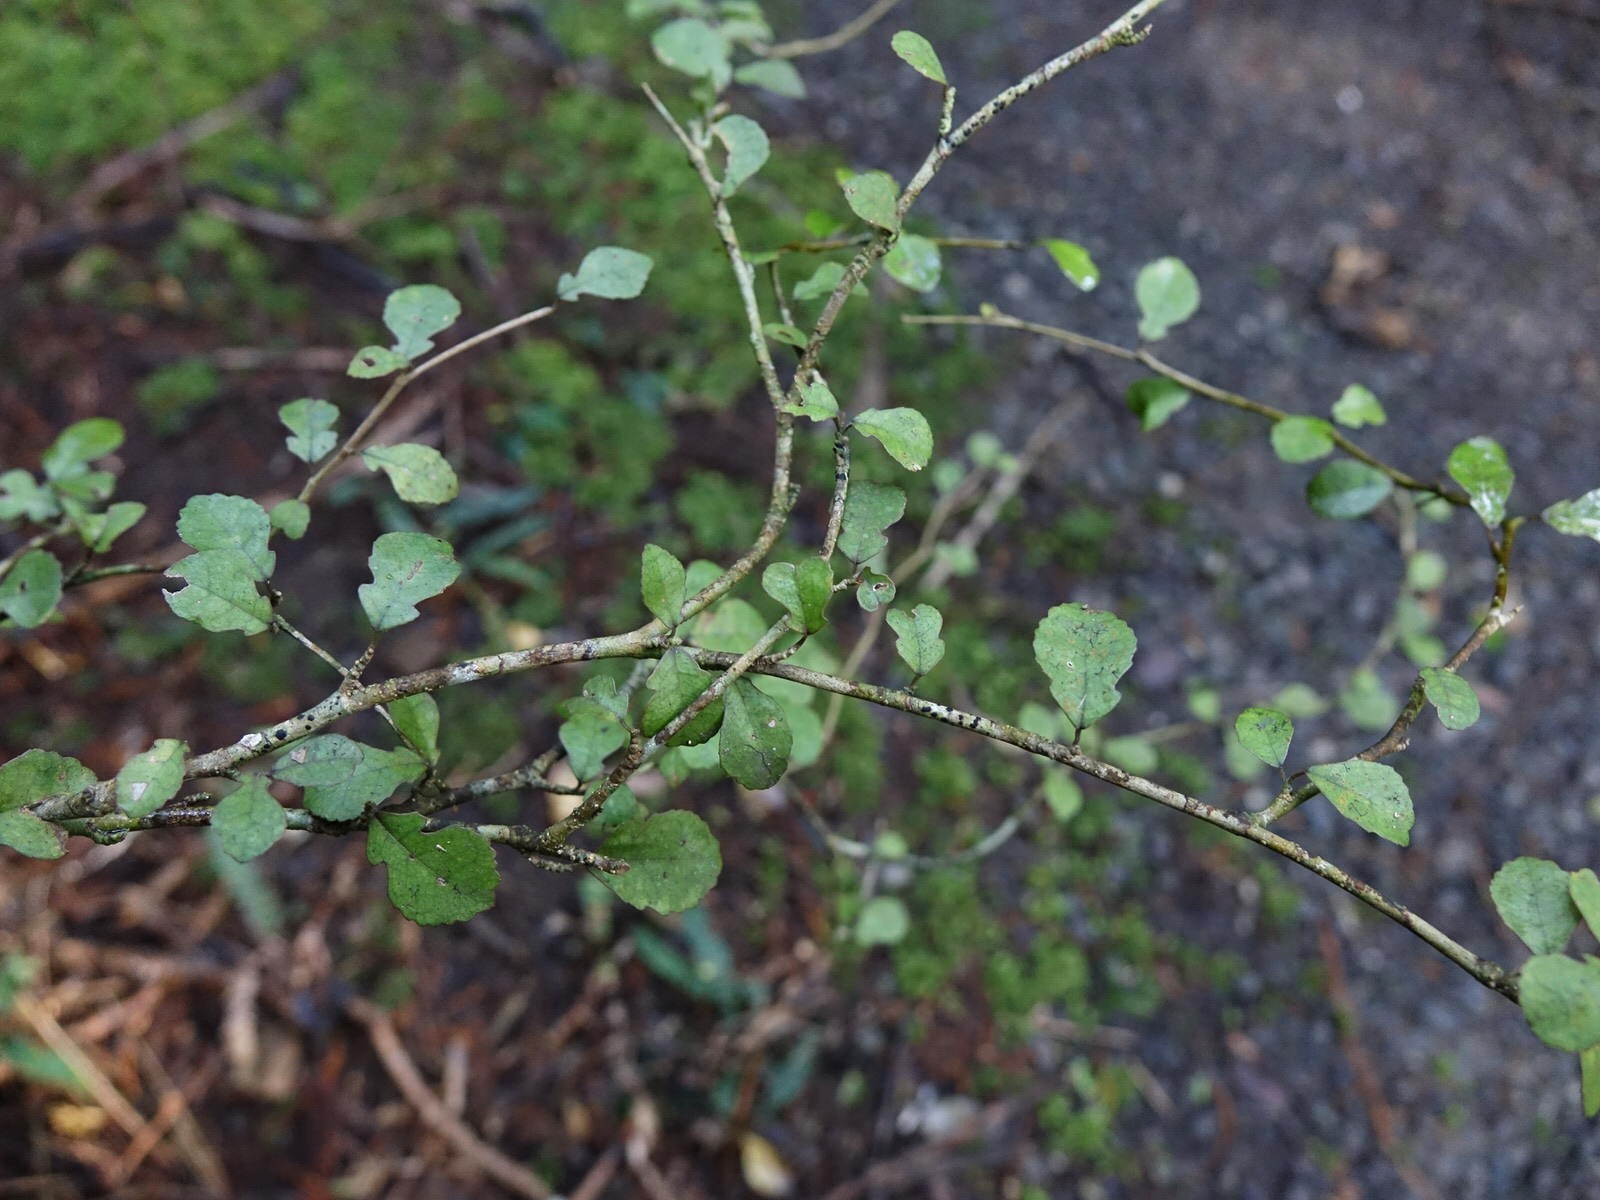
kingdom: Plantae
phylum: Tracheophyta
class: Magnoliopsida
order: Rosales
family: Moraceae
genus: Paratrophis
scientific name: Paratrophis microphylla
